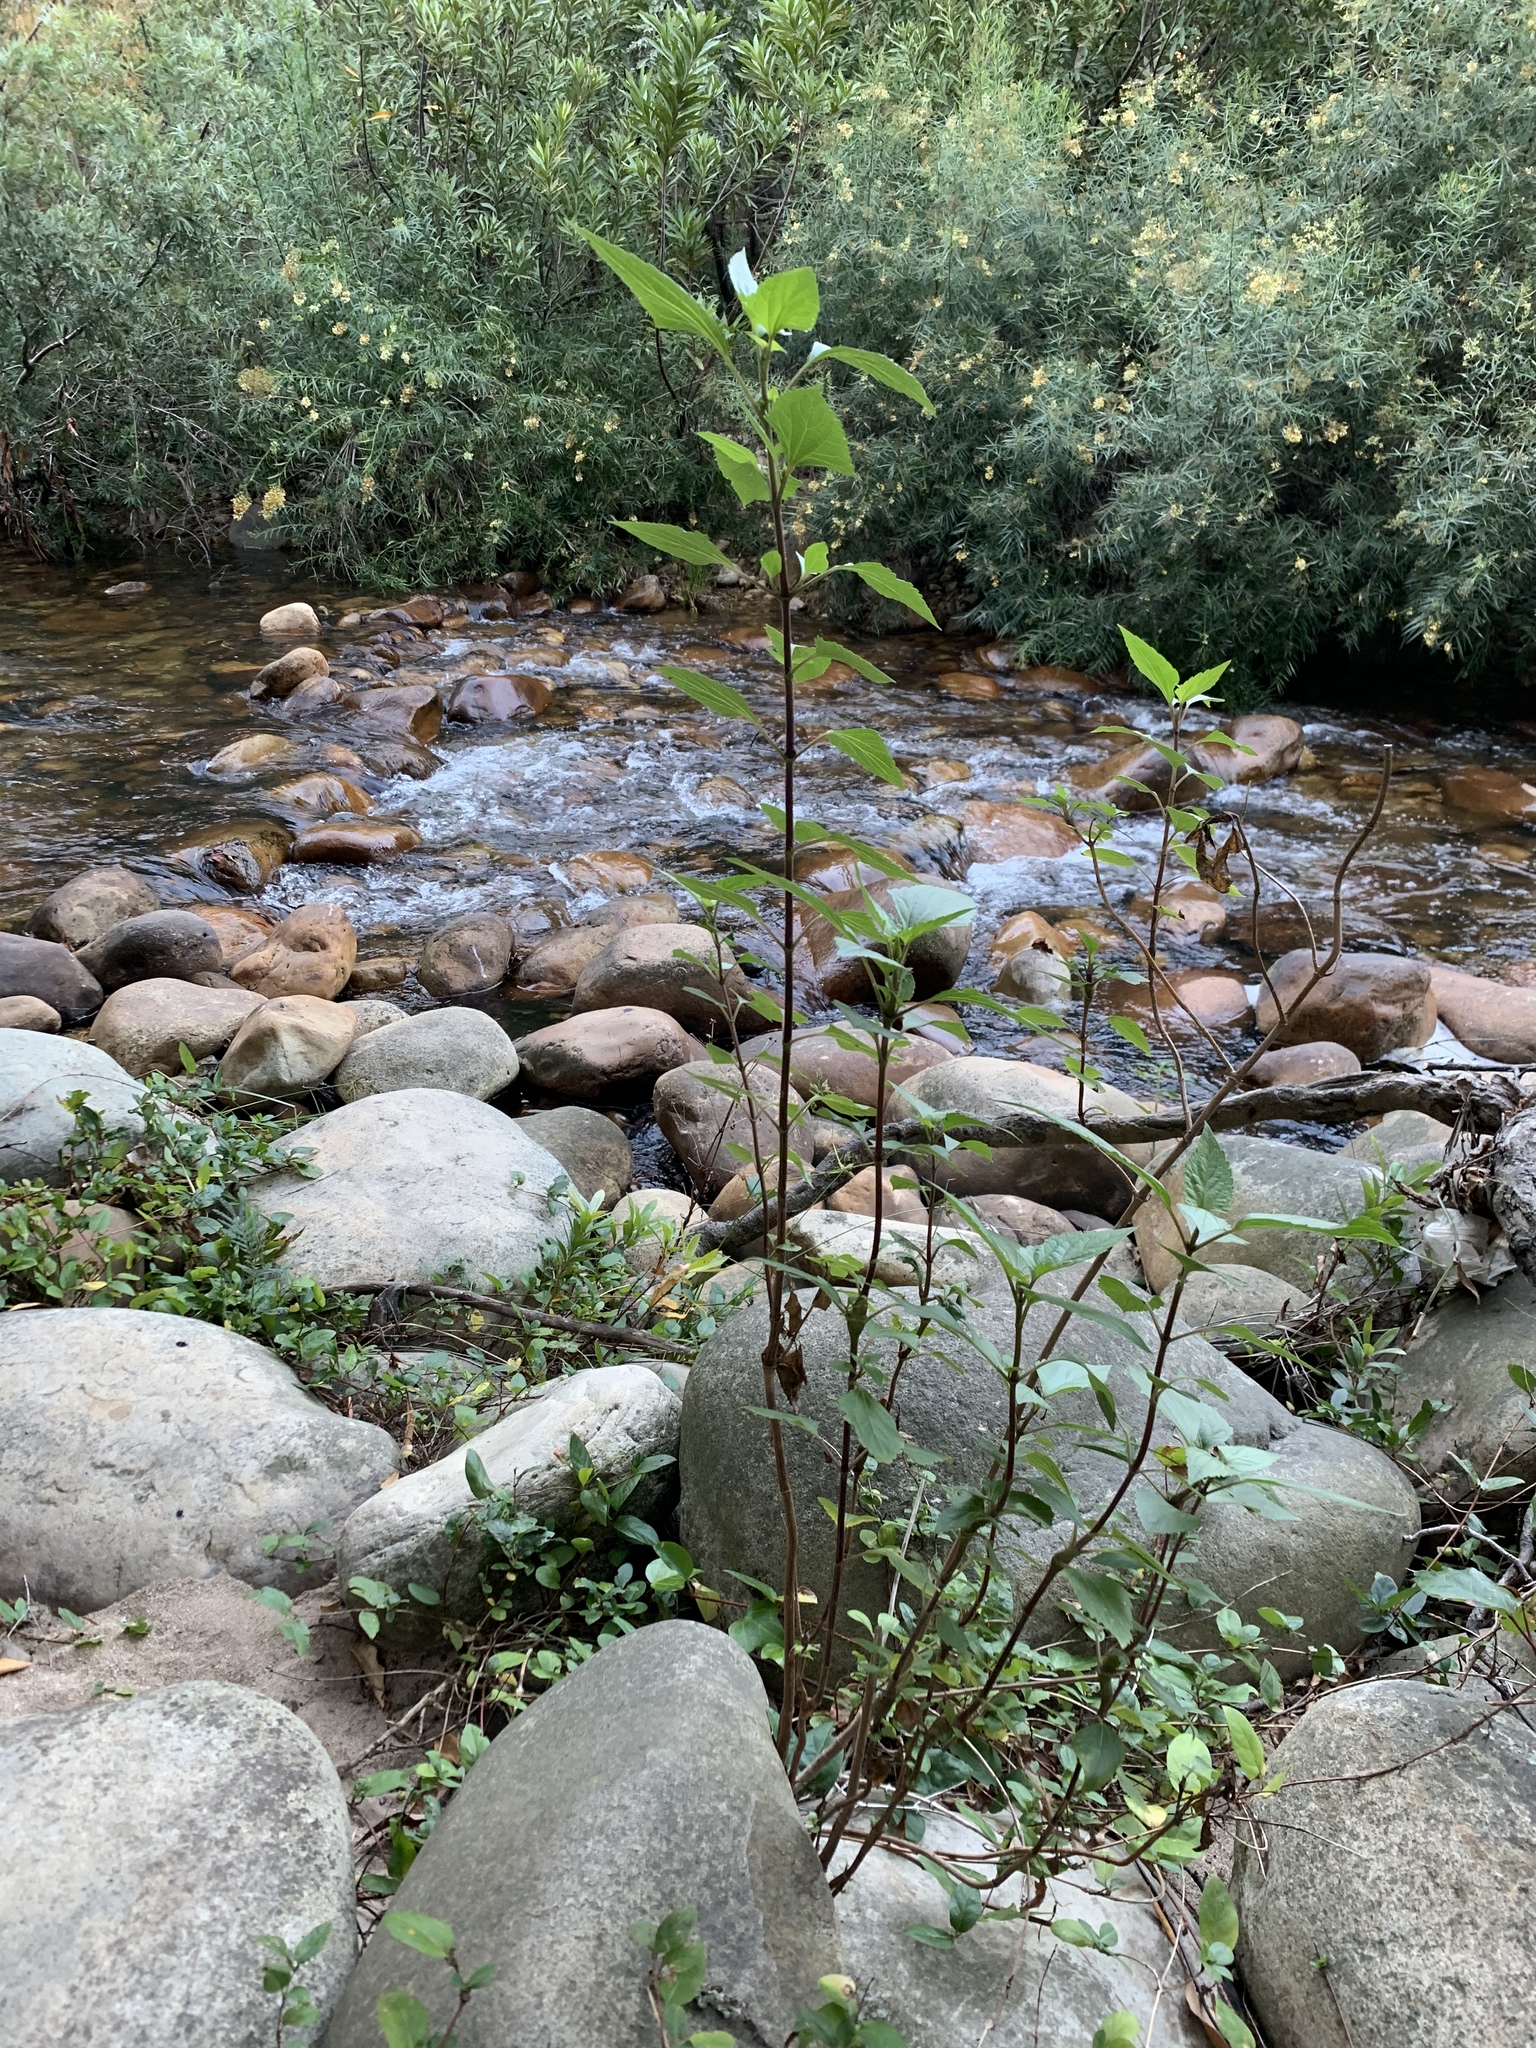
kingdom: Plantae
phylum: Tracheophyta
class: Magnoliopsida
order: Asterales
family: Asteraceae
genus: Ageratina
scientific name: Ageratina adenophora
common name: Sticky snakeroot
